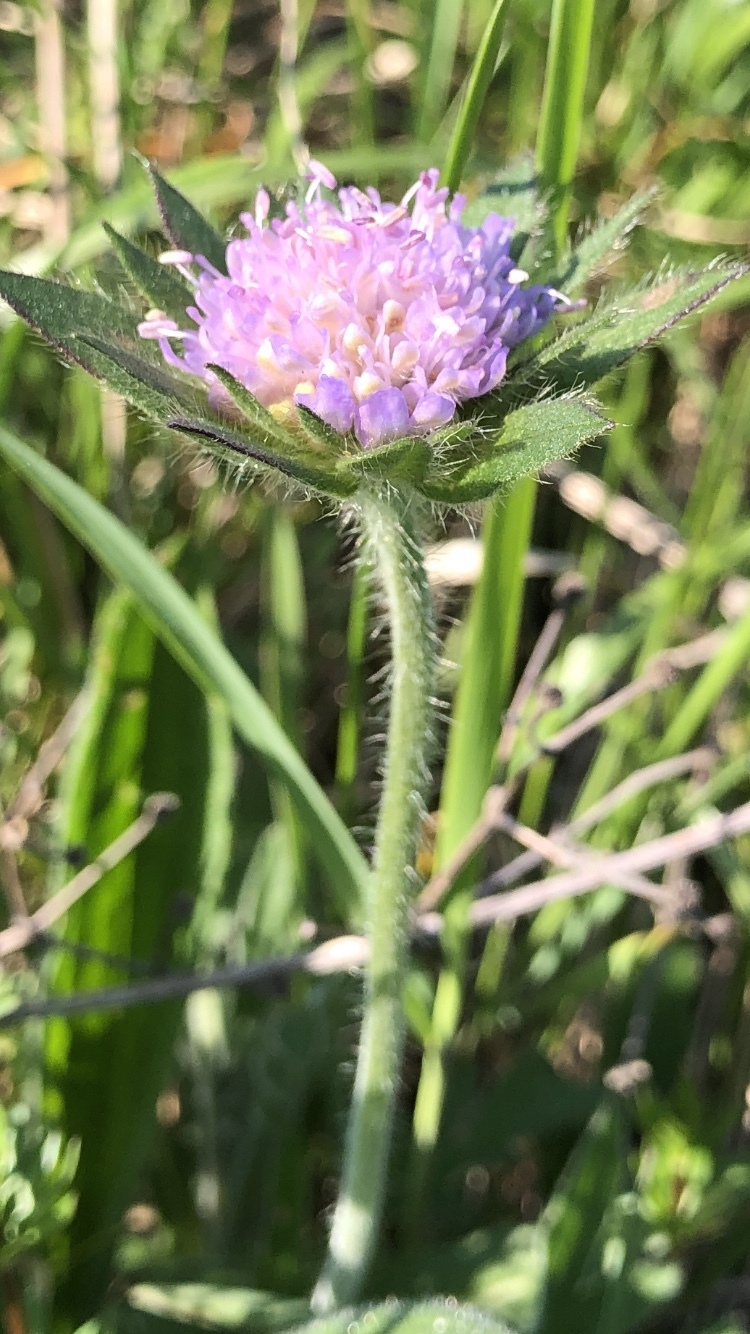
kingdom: Plantae
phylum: Tracheophyta
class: Magnoliopsida
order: Dipsacales
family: Caprifoliaceae
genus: Knautia
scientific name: Knautia arvensis
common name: Field scabiosa
